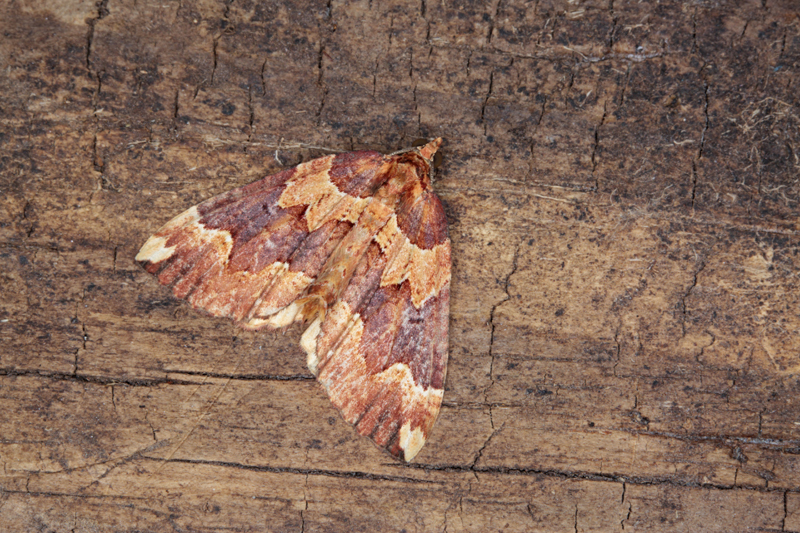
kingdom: Animalia
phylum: Arthropoda
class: Insecta
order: Lepidoptera
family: Geometridae
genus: Austrocidaria
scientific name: Austrocidaria haemophaea
